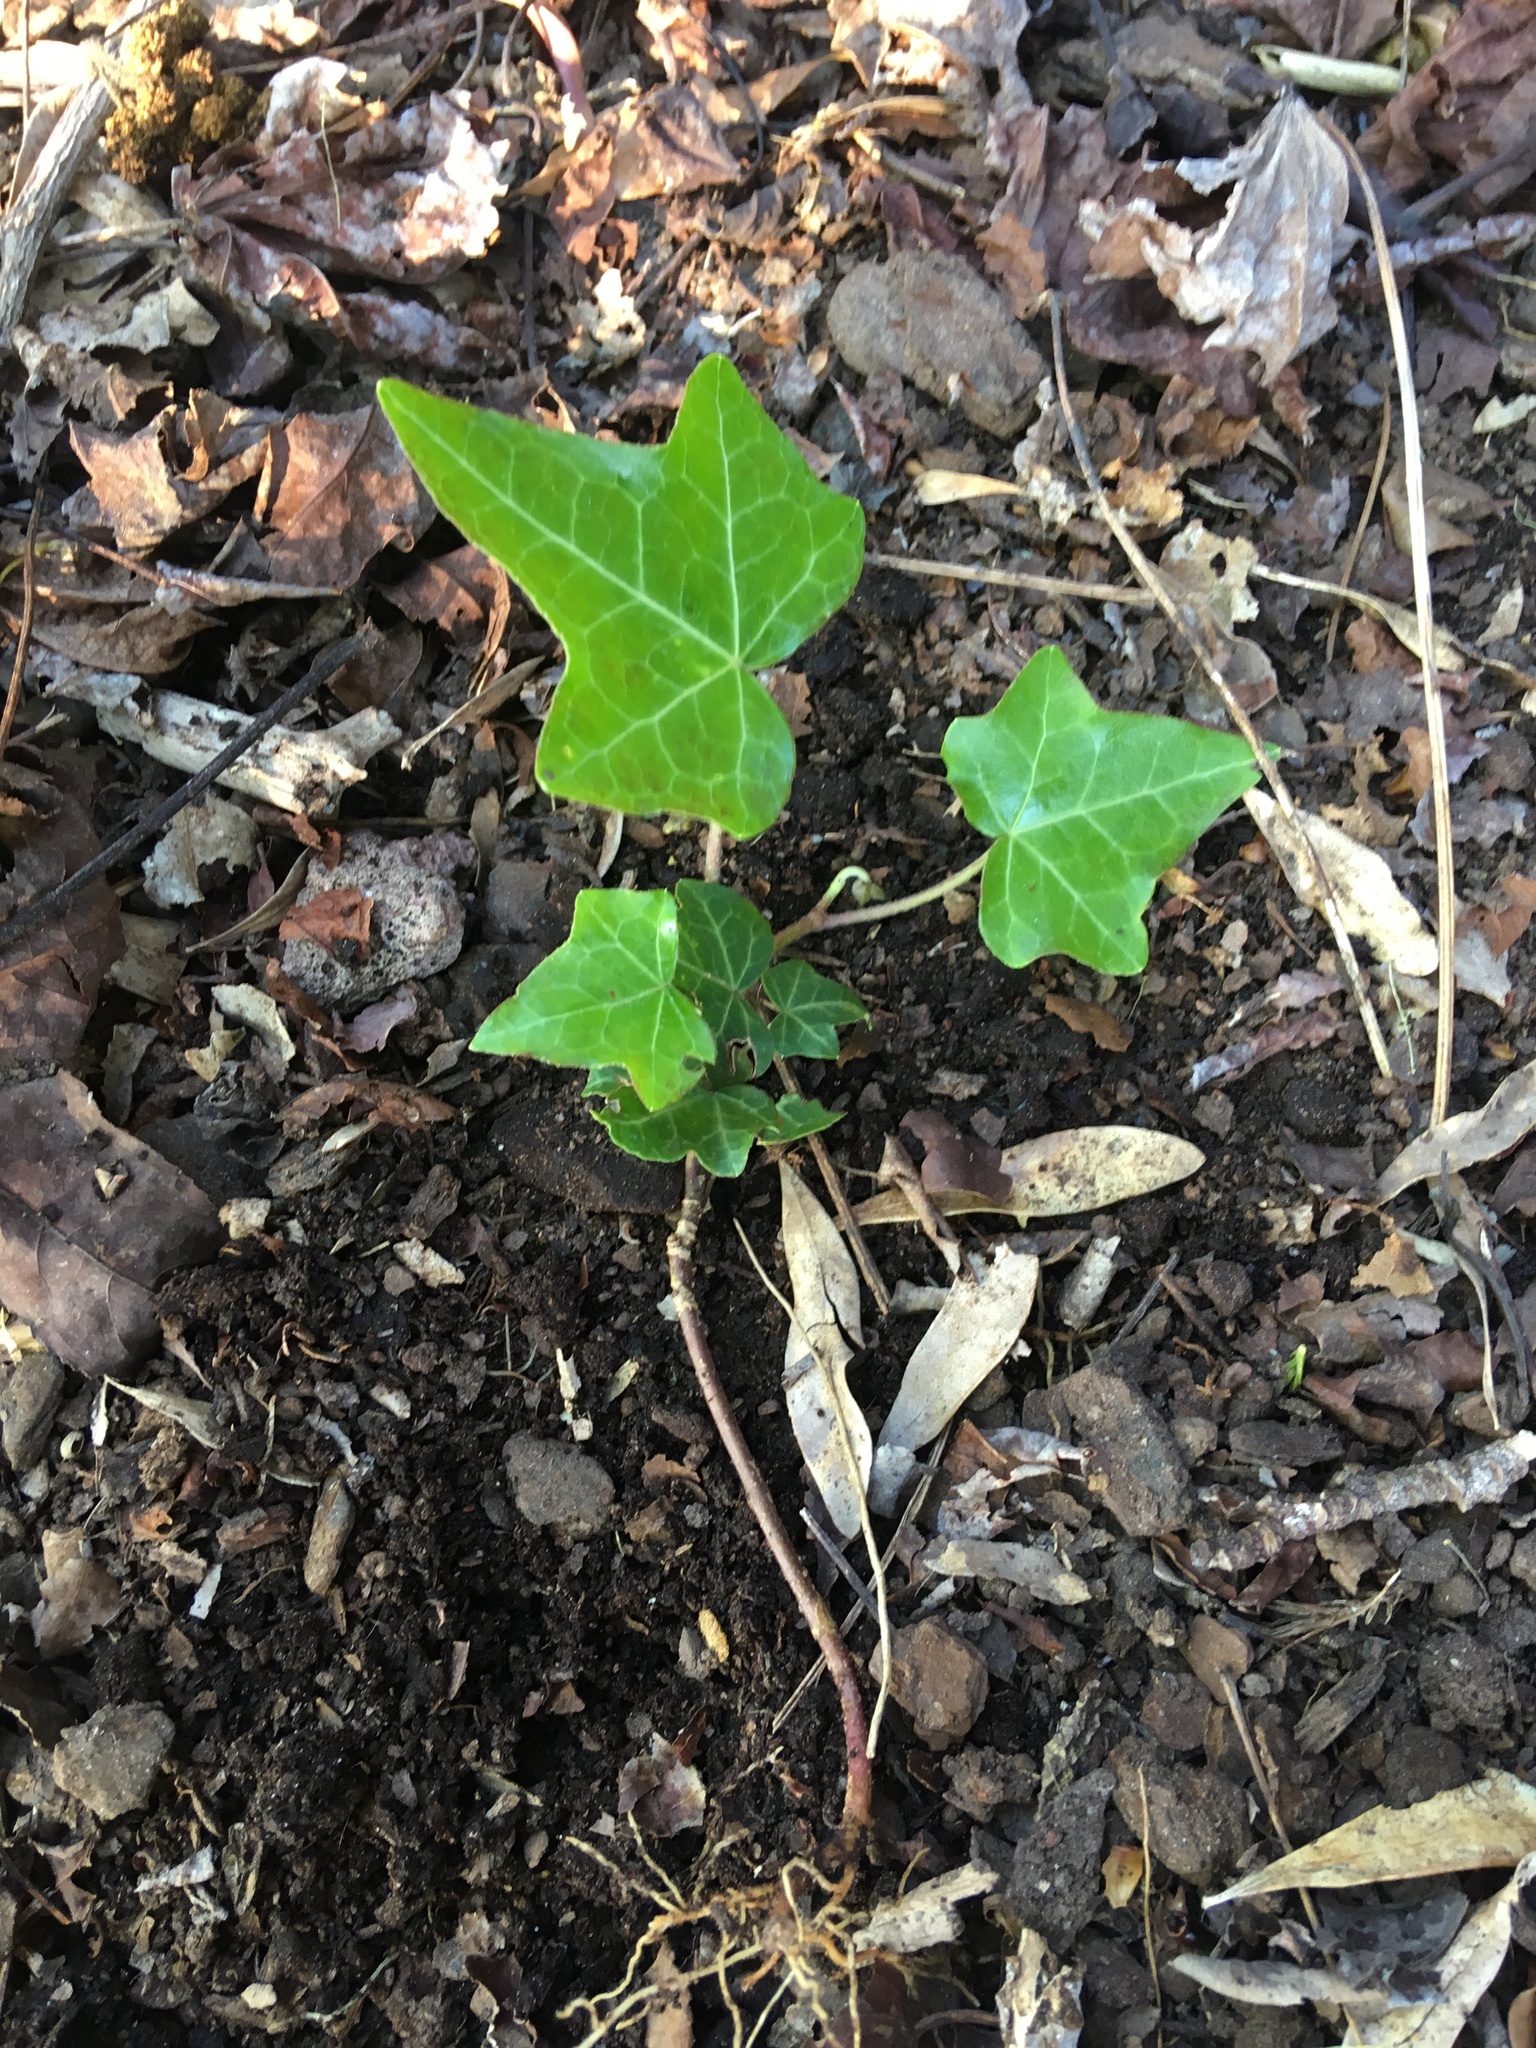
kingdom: Plantae
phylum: Tracheophyta
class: Magnoliopsida
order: Apiales
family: Araliaceae
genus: Hedera
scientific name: Hedera helix
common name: Ivy
